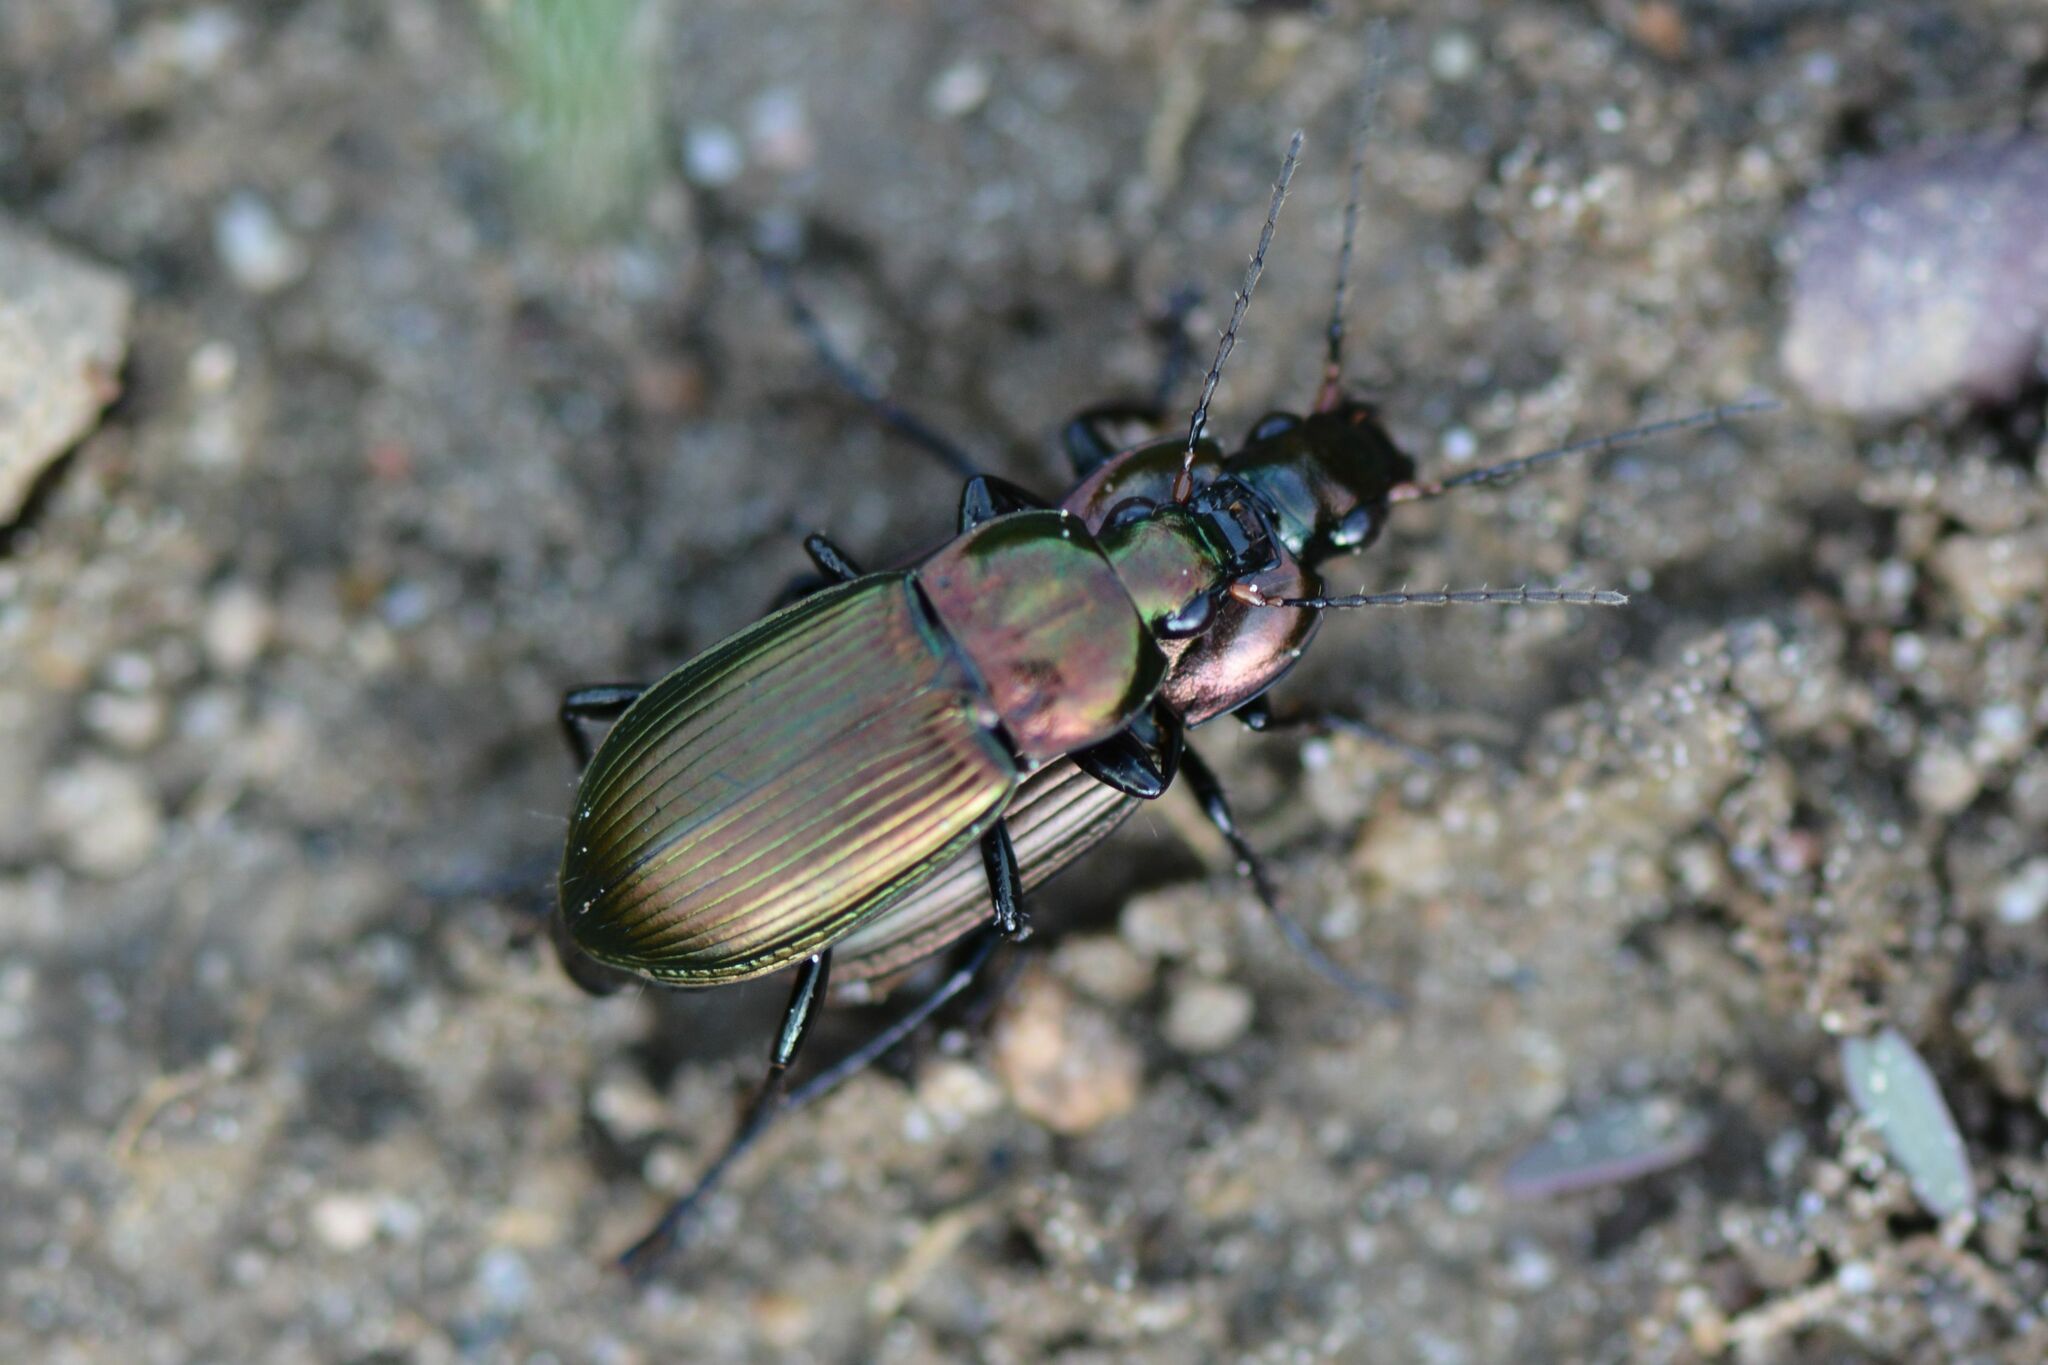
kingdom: Animalia
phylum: Arthropoda
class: Insecta
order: Coleoptera
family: Carabidae
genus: Poecilus
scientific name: Poecilus cupreus
